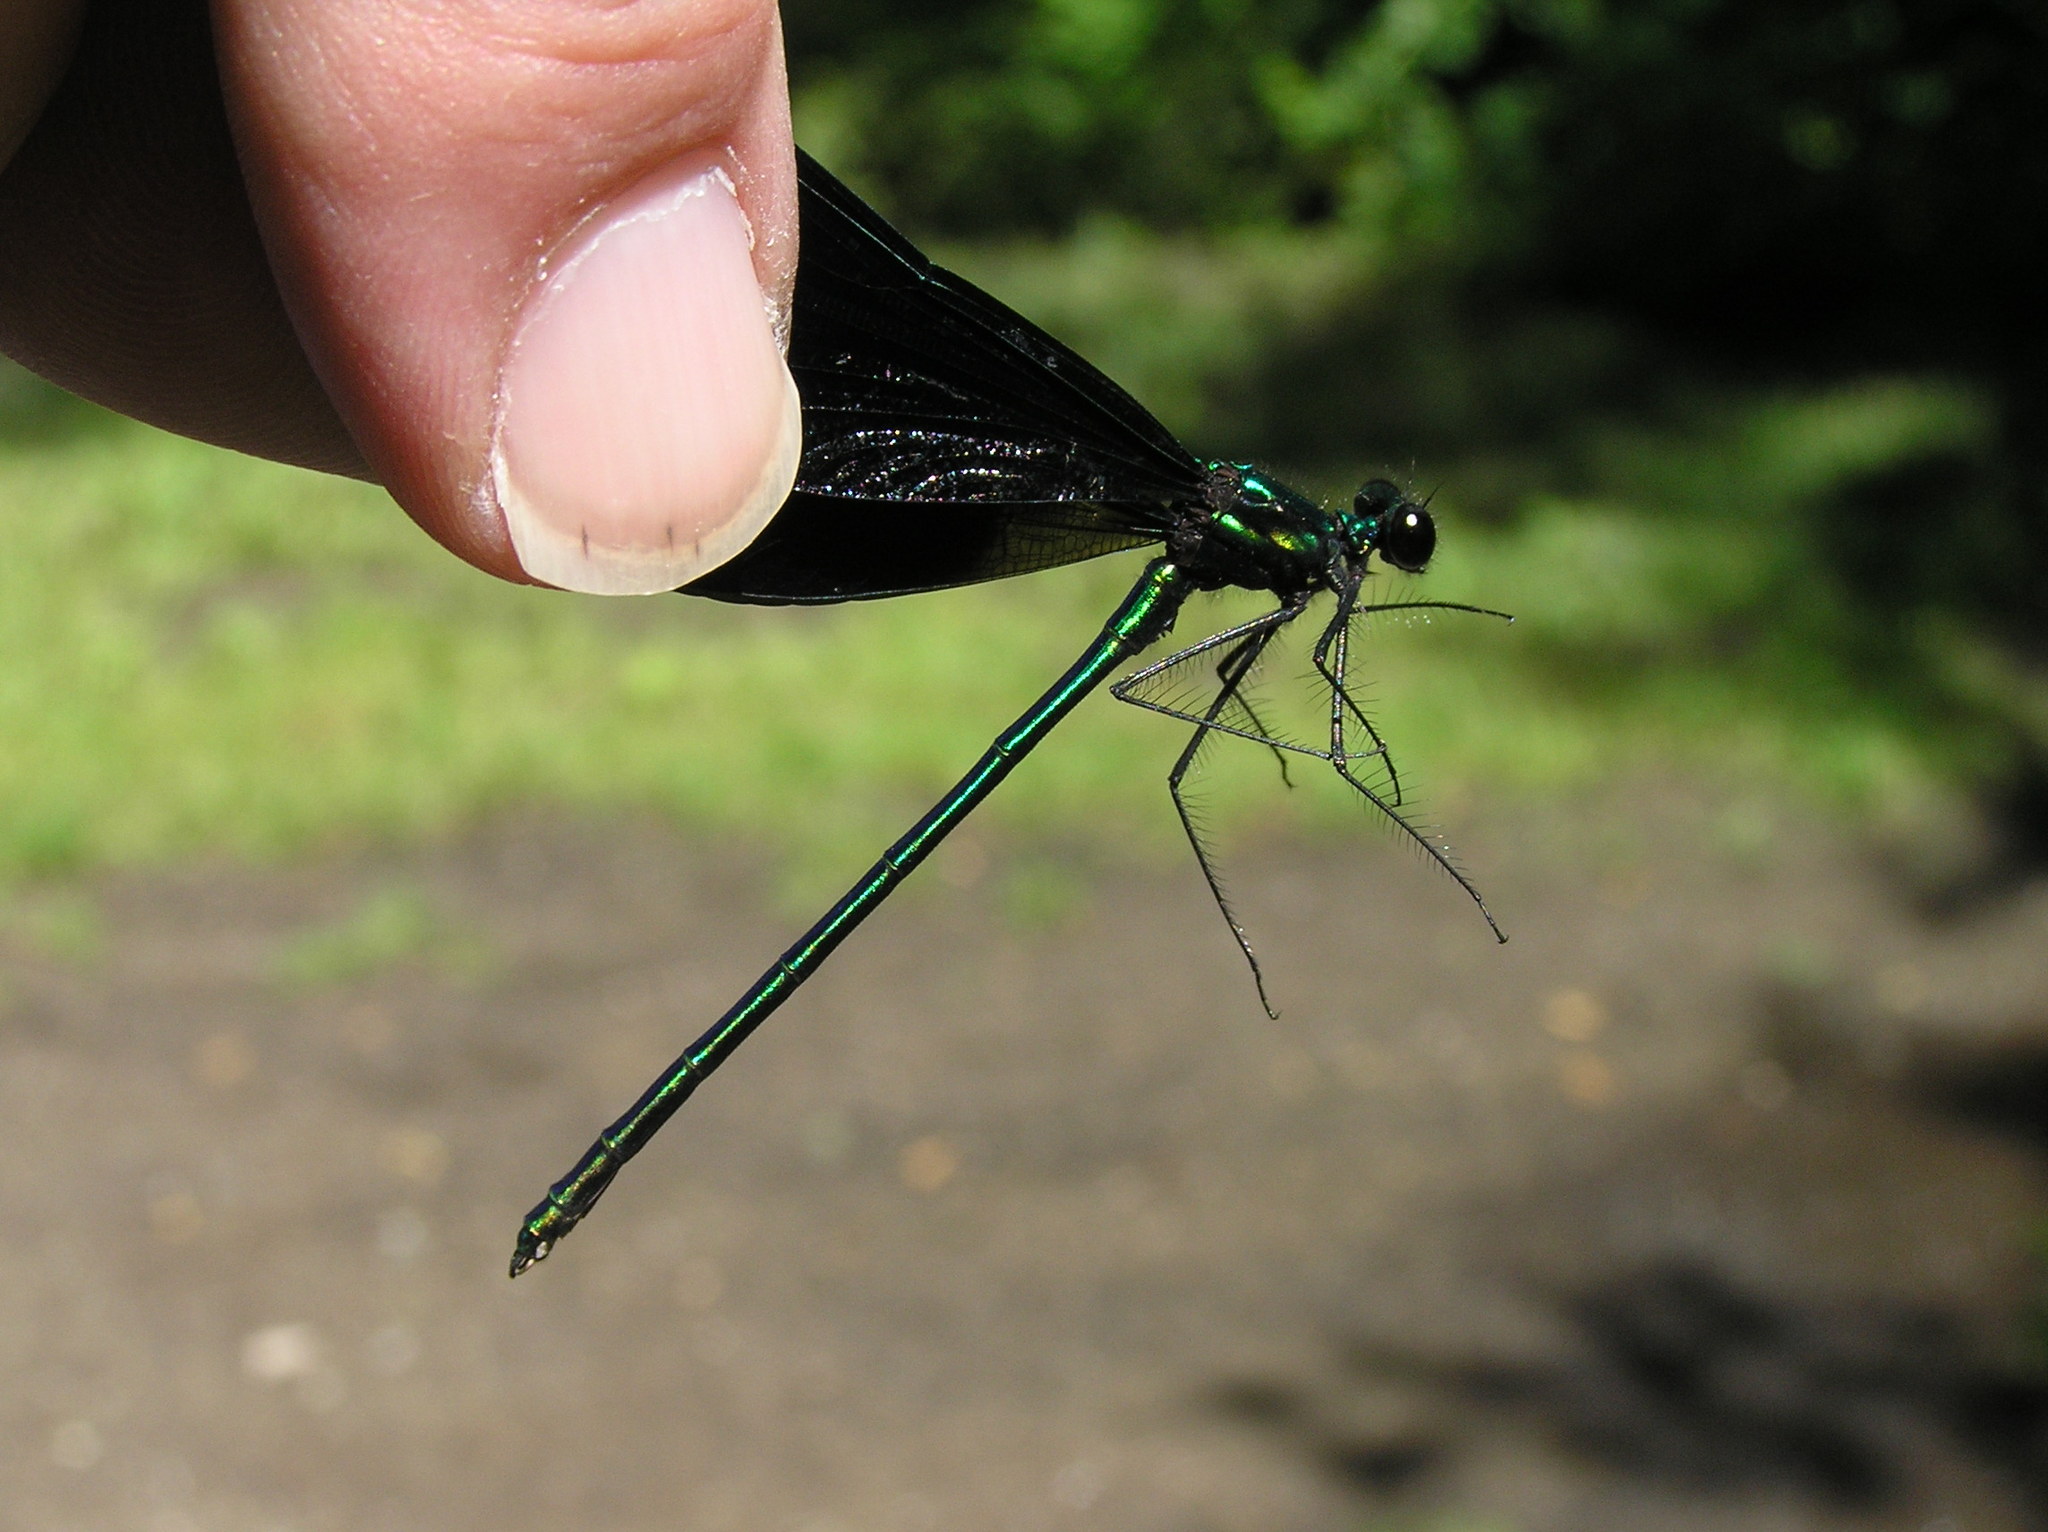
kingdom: Animalia
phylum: Arthropoda
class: Insecta
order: Odonata
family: Calopterygidae
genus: Calopteryx
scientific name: Calopteryx maculata
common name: Ebony jewelwing
